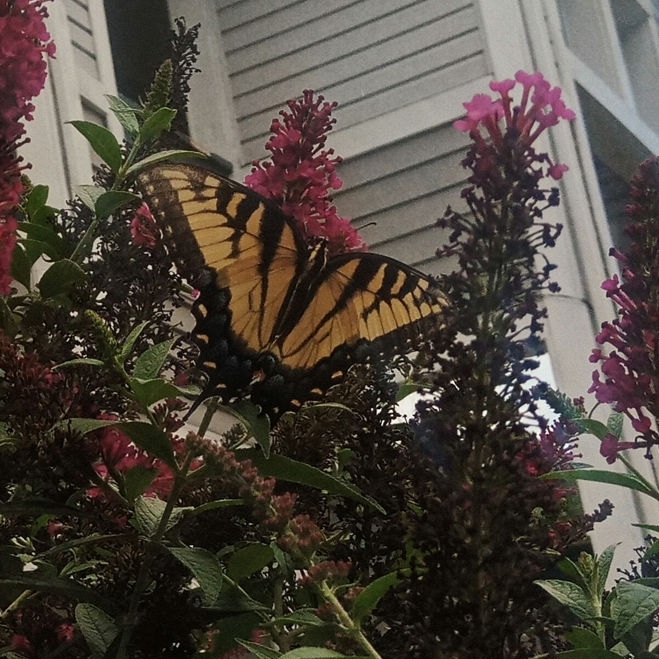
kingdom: Animalia
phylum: Arthropoda
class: Insecta
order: Lepidoptera
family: Papilionidae
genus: Papilio
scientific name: Papilio glaucus
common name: Tiger swallowtail
